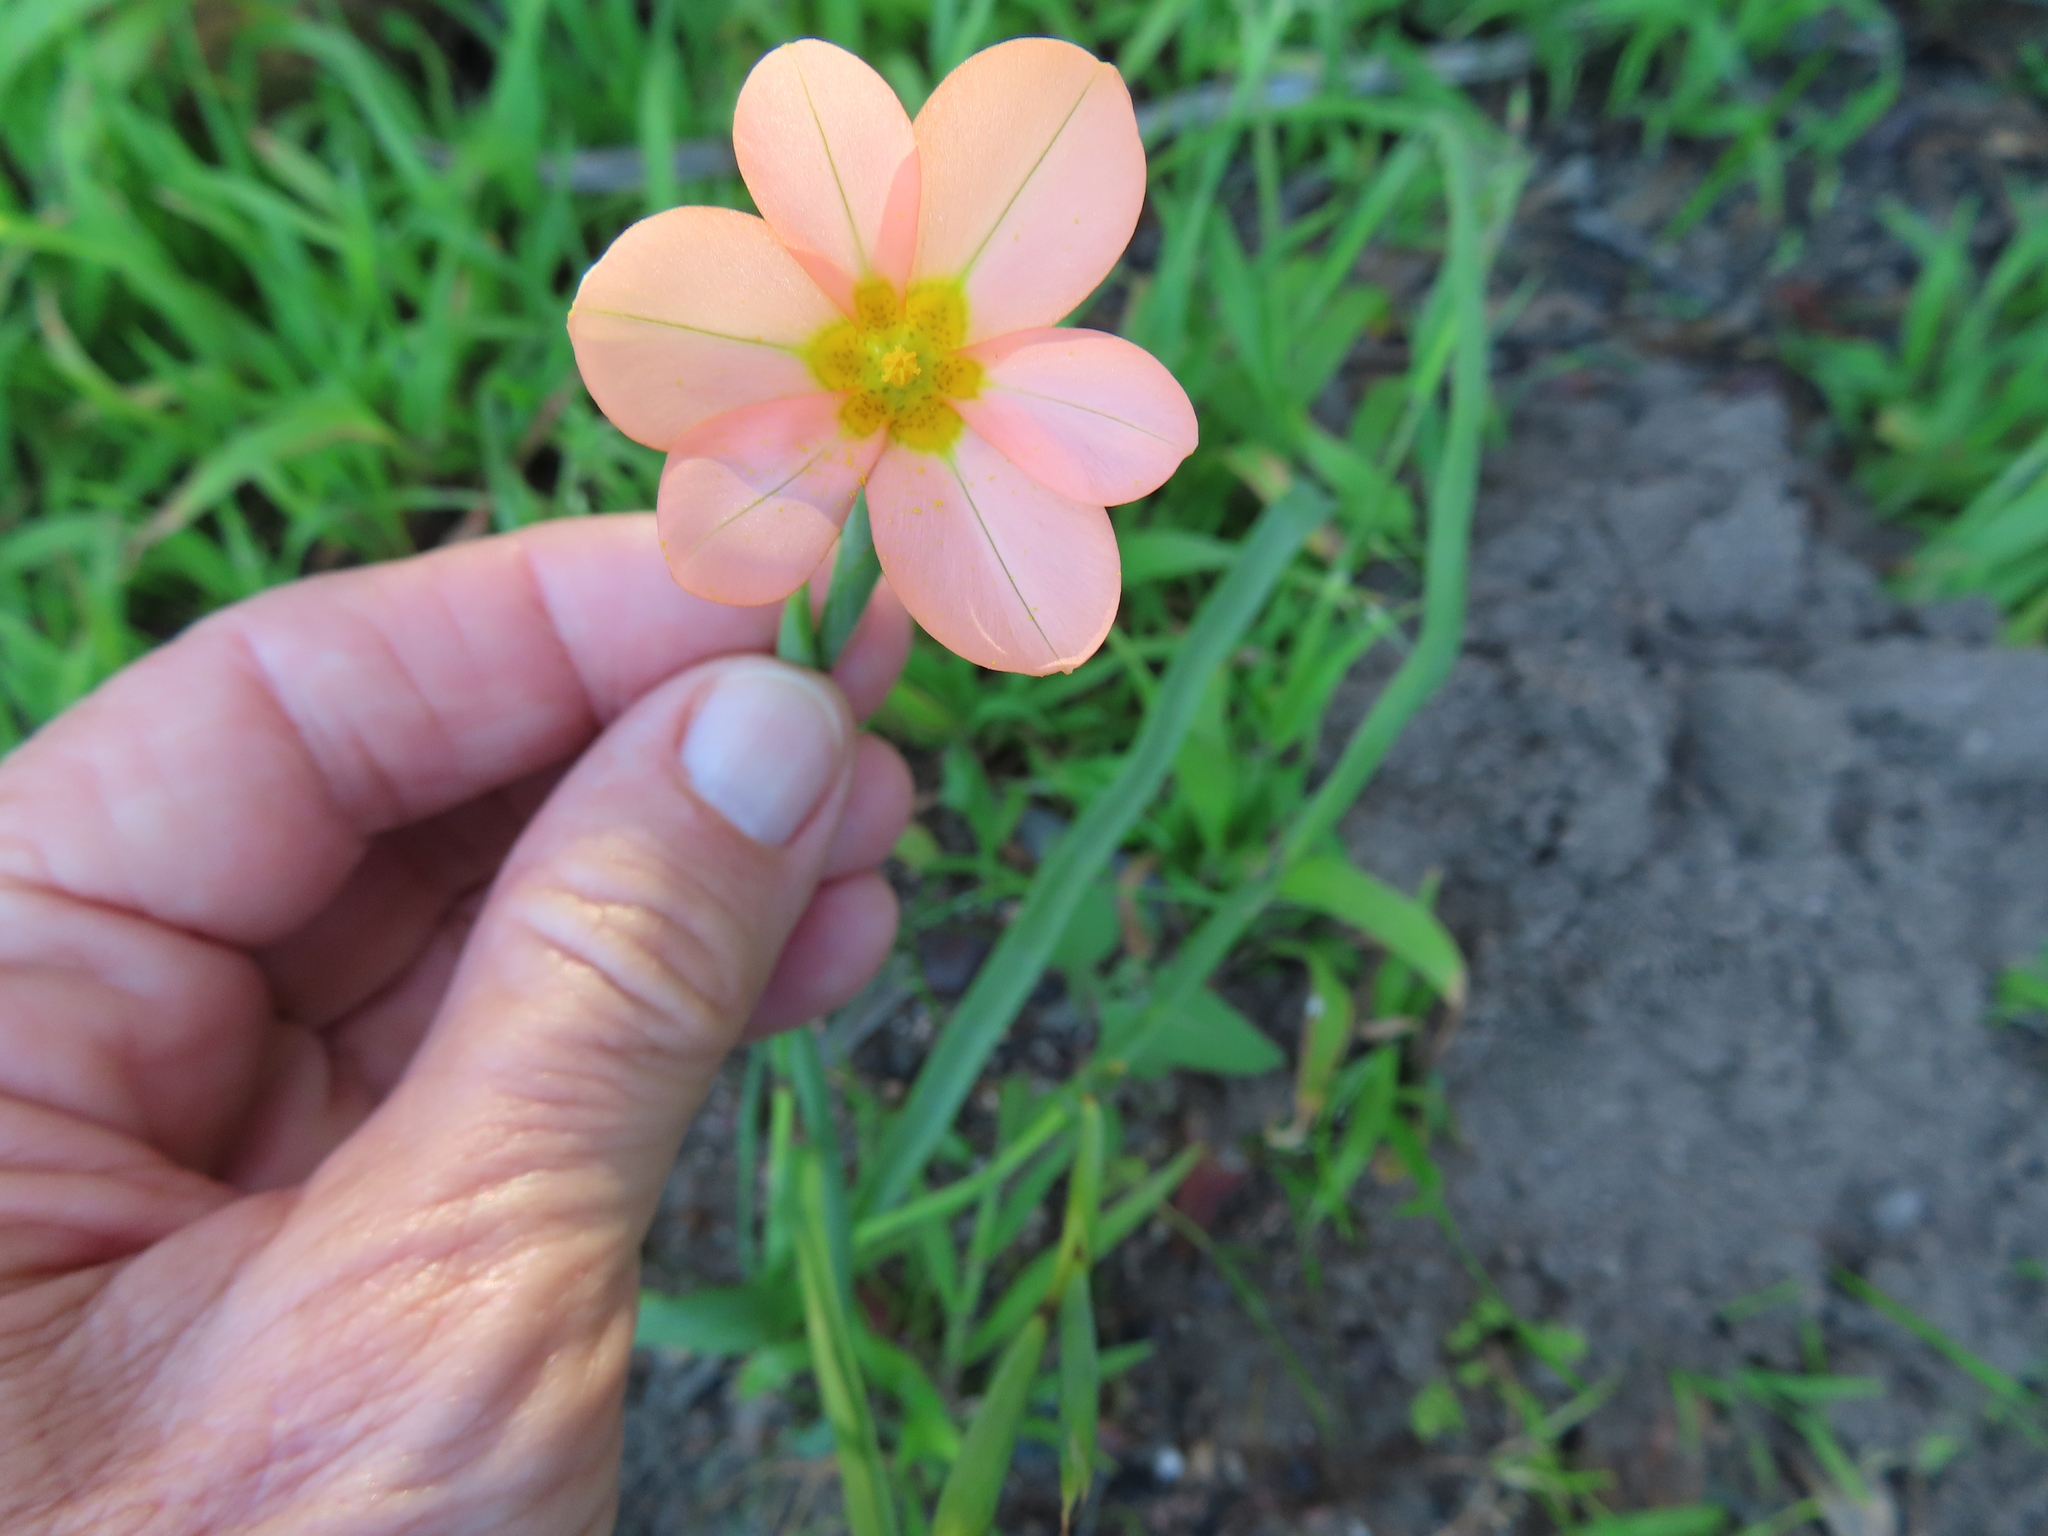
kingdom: Plantae
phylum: Tracheophyta
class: Liliopsida
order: Asparagales
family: Iridaceae
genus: Moraea
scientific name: Moraea miniata
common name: Two-leaf cape-tulip
